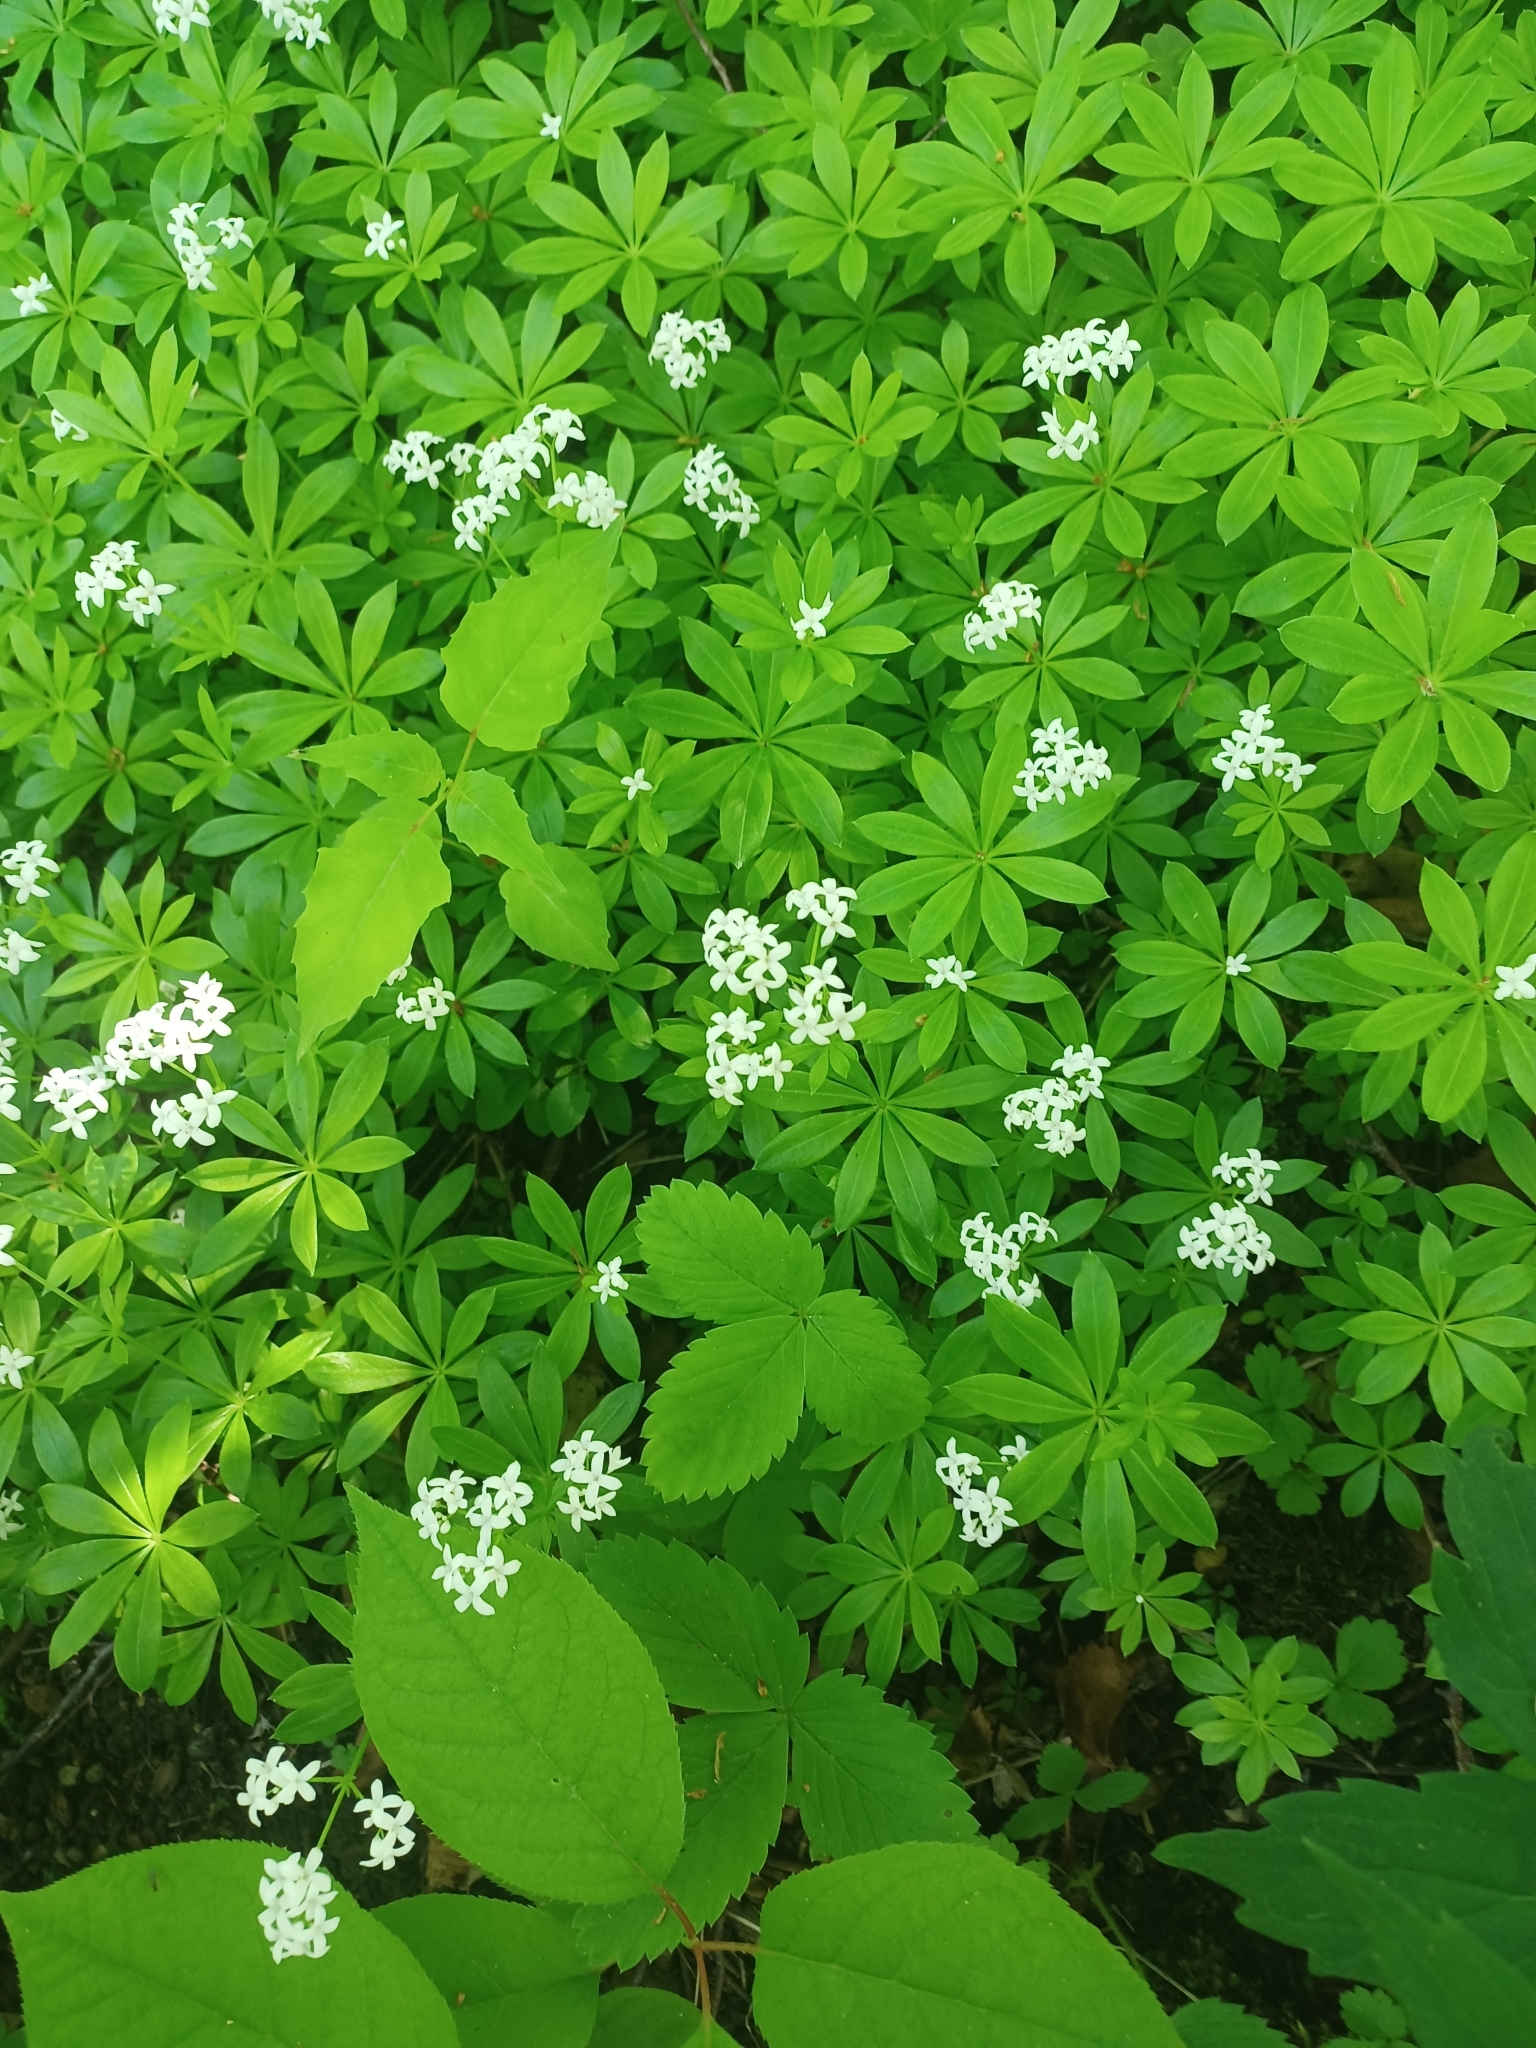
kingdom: Plantae
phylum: Tracheophyta
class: Magnoliopsida
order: Gentianales
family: Rubiaceae
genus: Galium
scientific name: Galium odoratum
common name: Sweet woodruff
